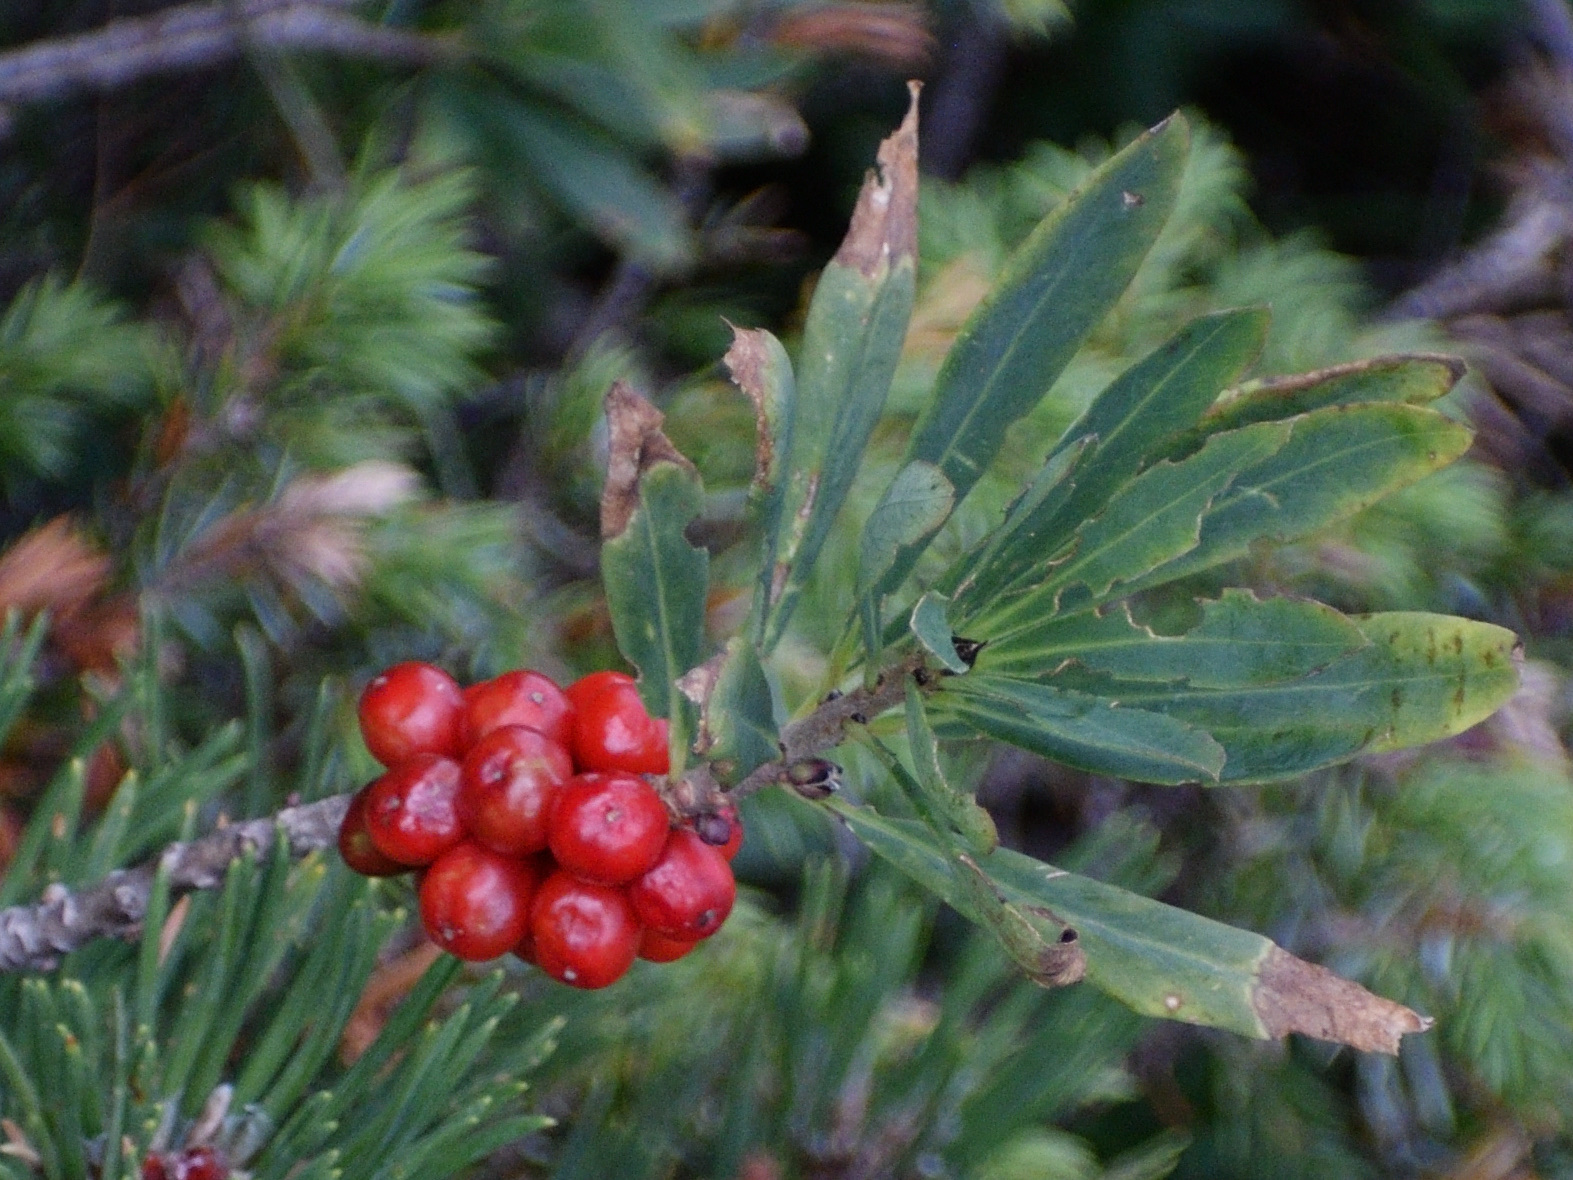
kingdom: Plantae
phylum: Tracheophyta
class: Magnoliopsida
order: Malvales
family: Thymelaeaceae
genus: Daphne
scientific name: Daphne mezereum
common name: Mezereon
